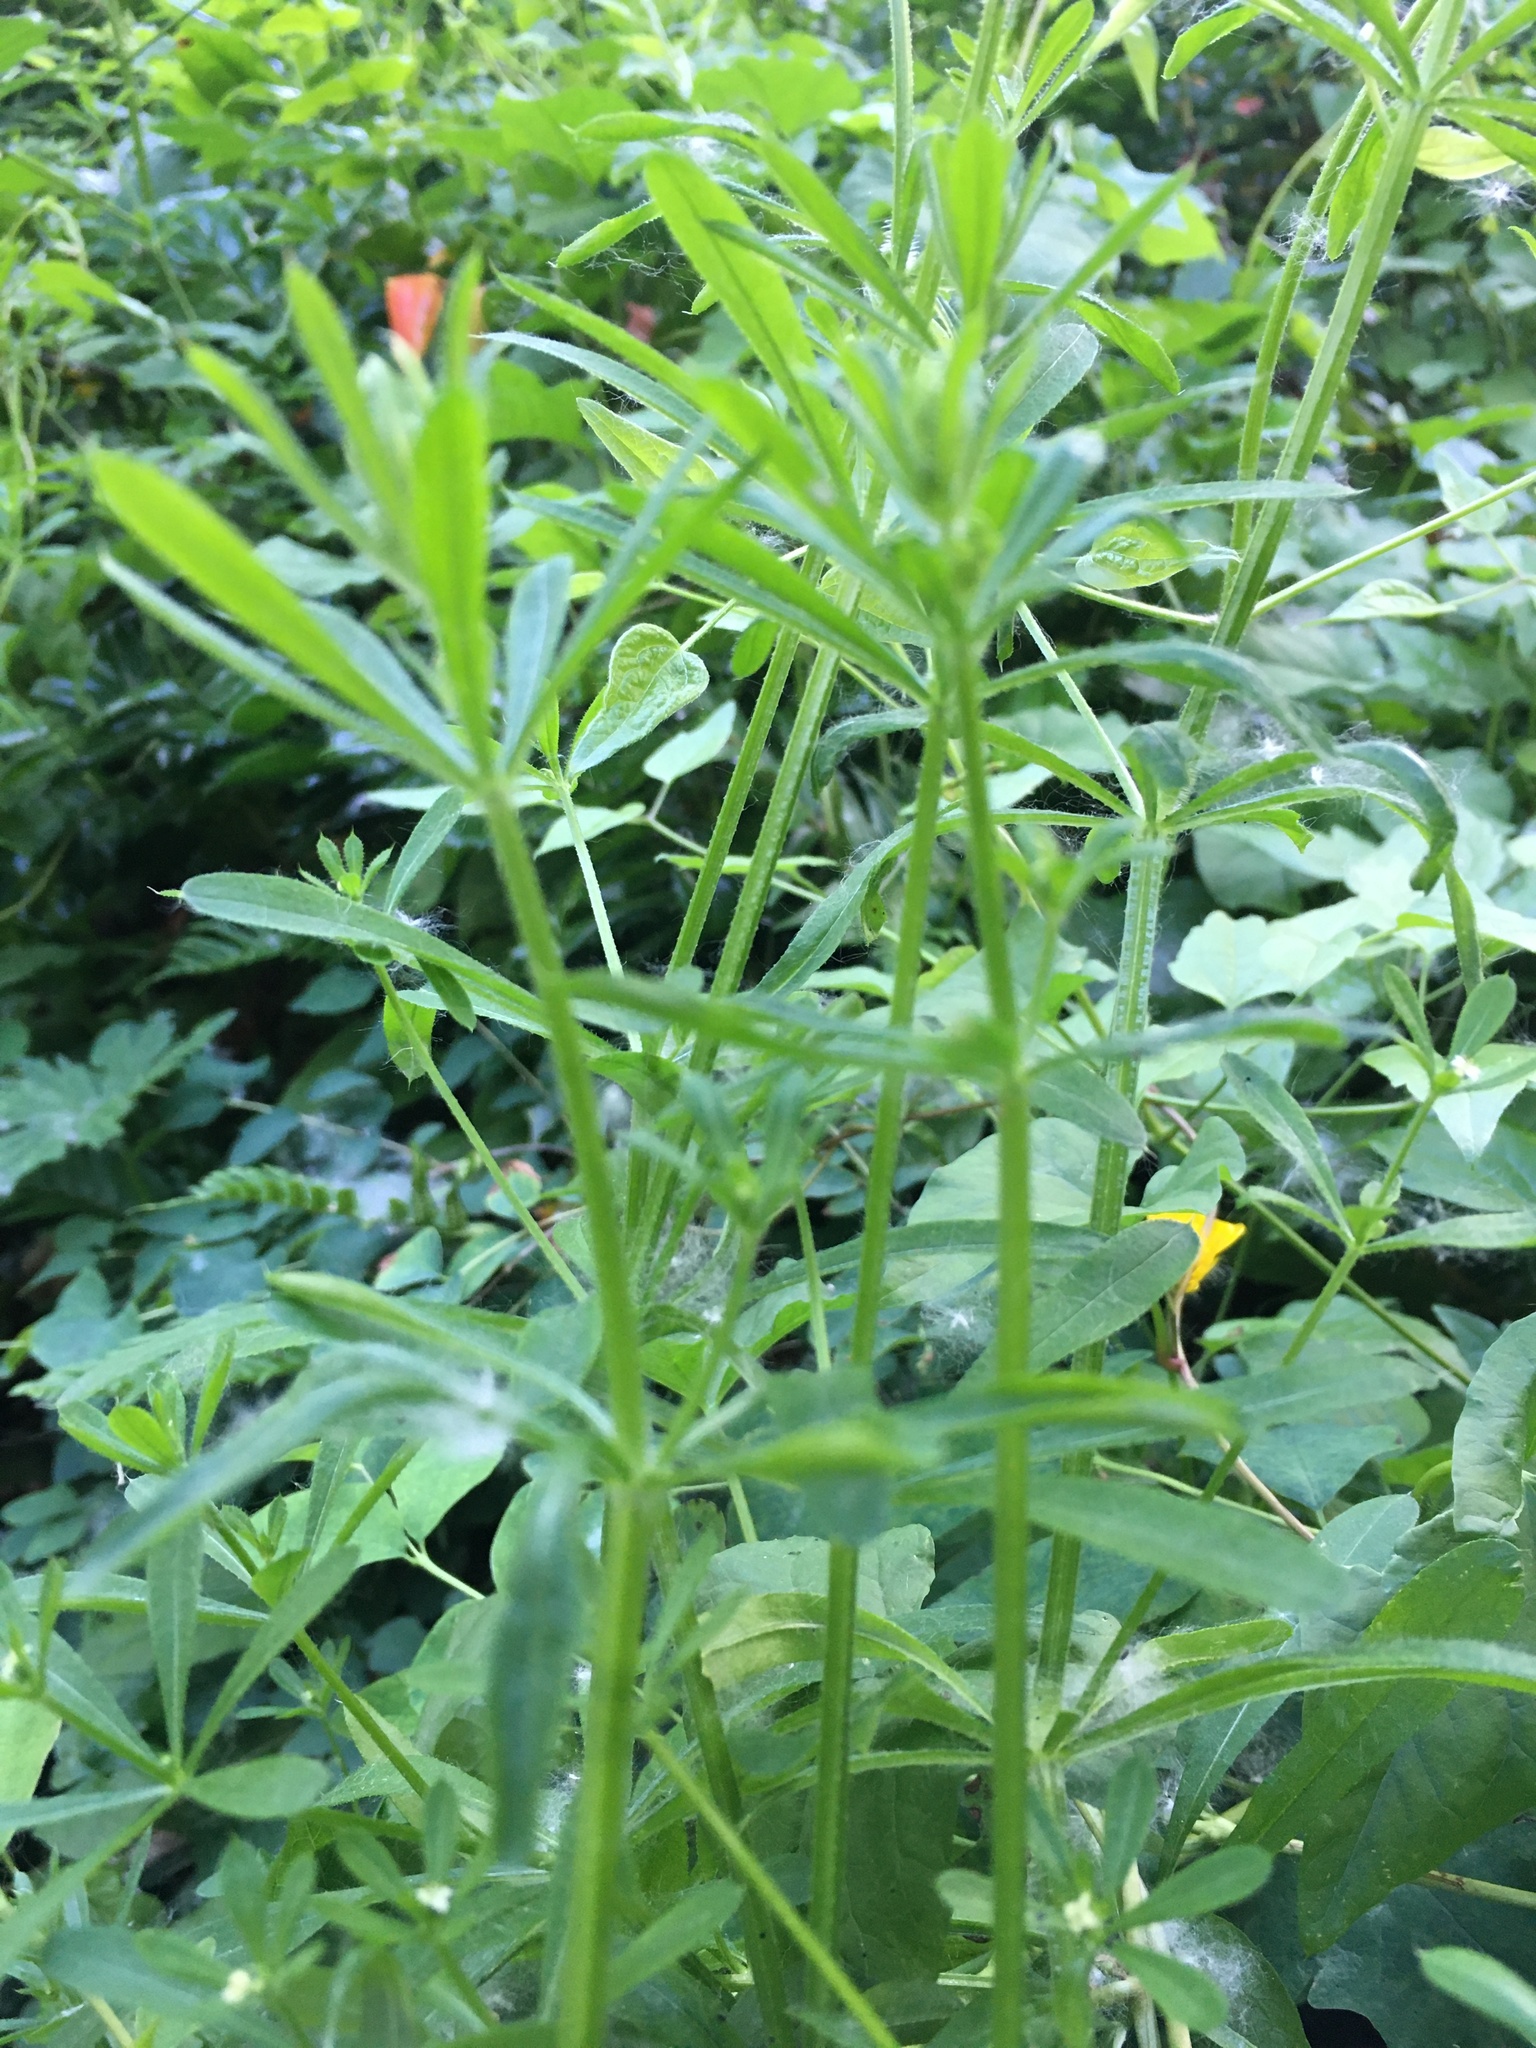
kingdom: Plantae
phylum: Tracheophyta
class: Magnoliopsida
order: Gentianales
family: Rubiaceae
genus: Galium
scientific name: Galium aparine
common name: Cleavers
